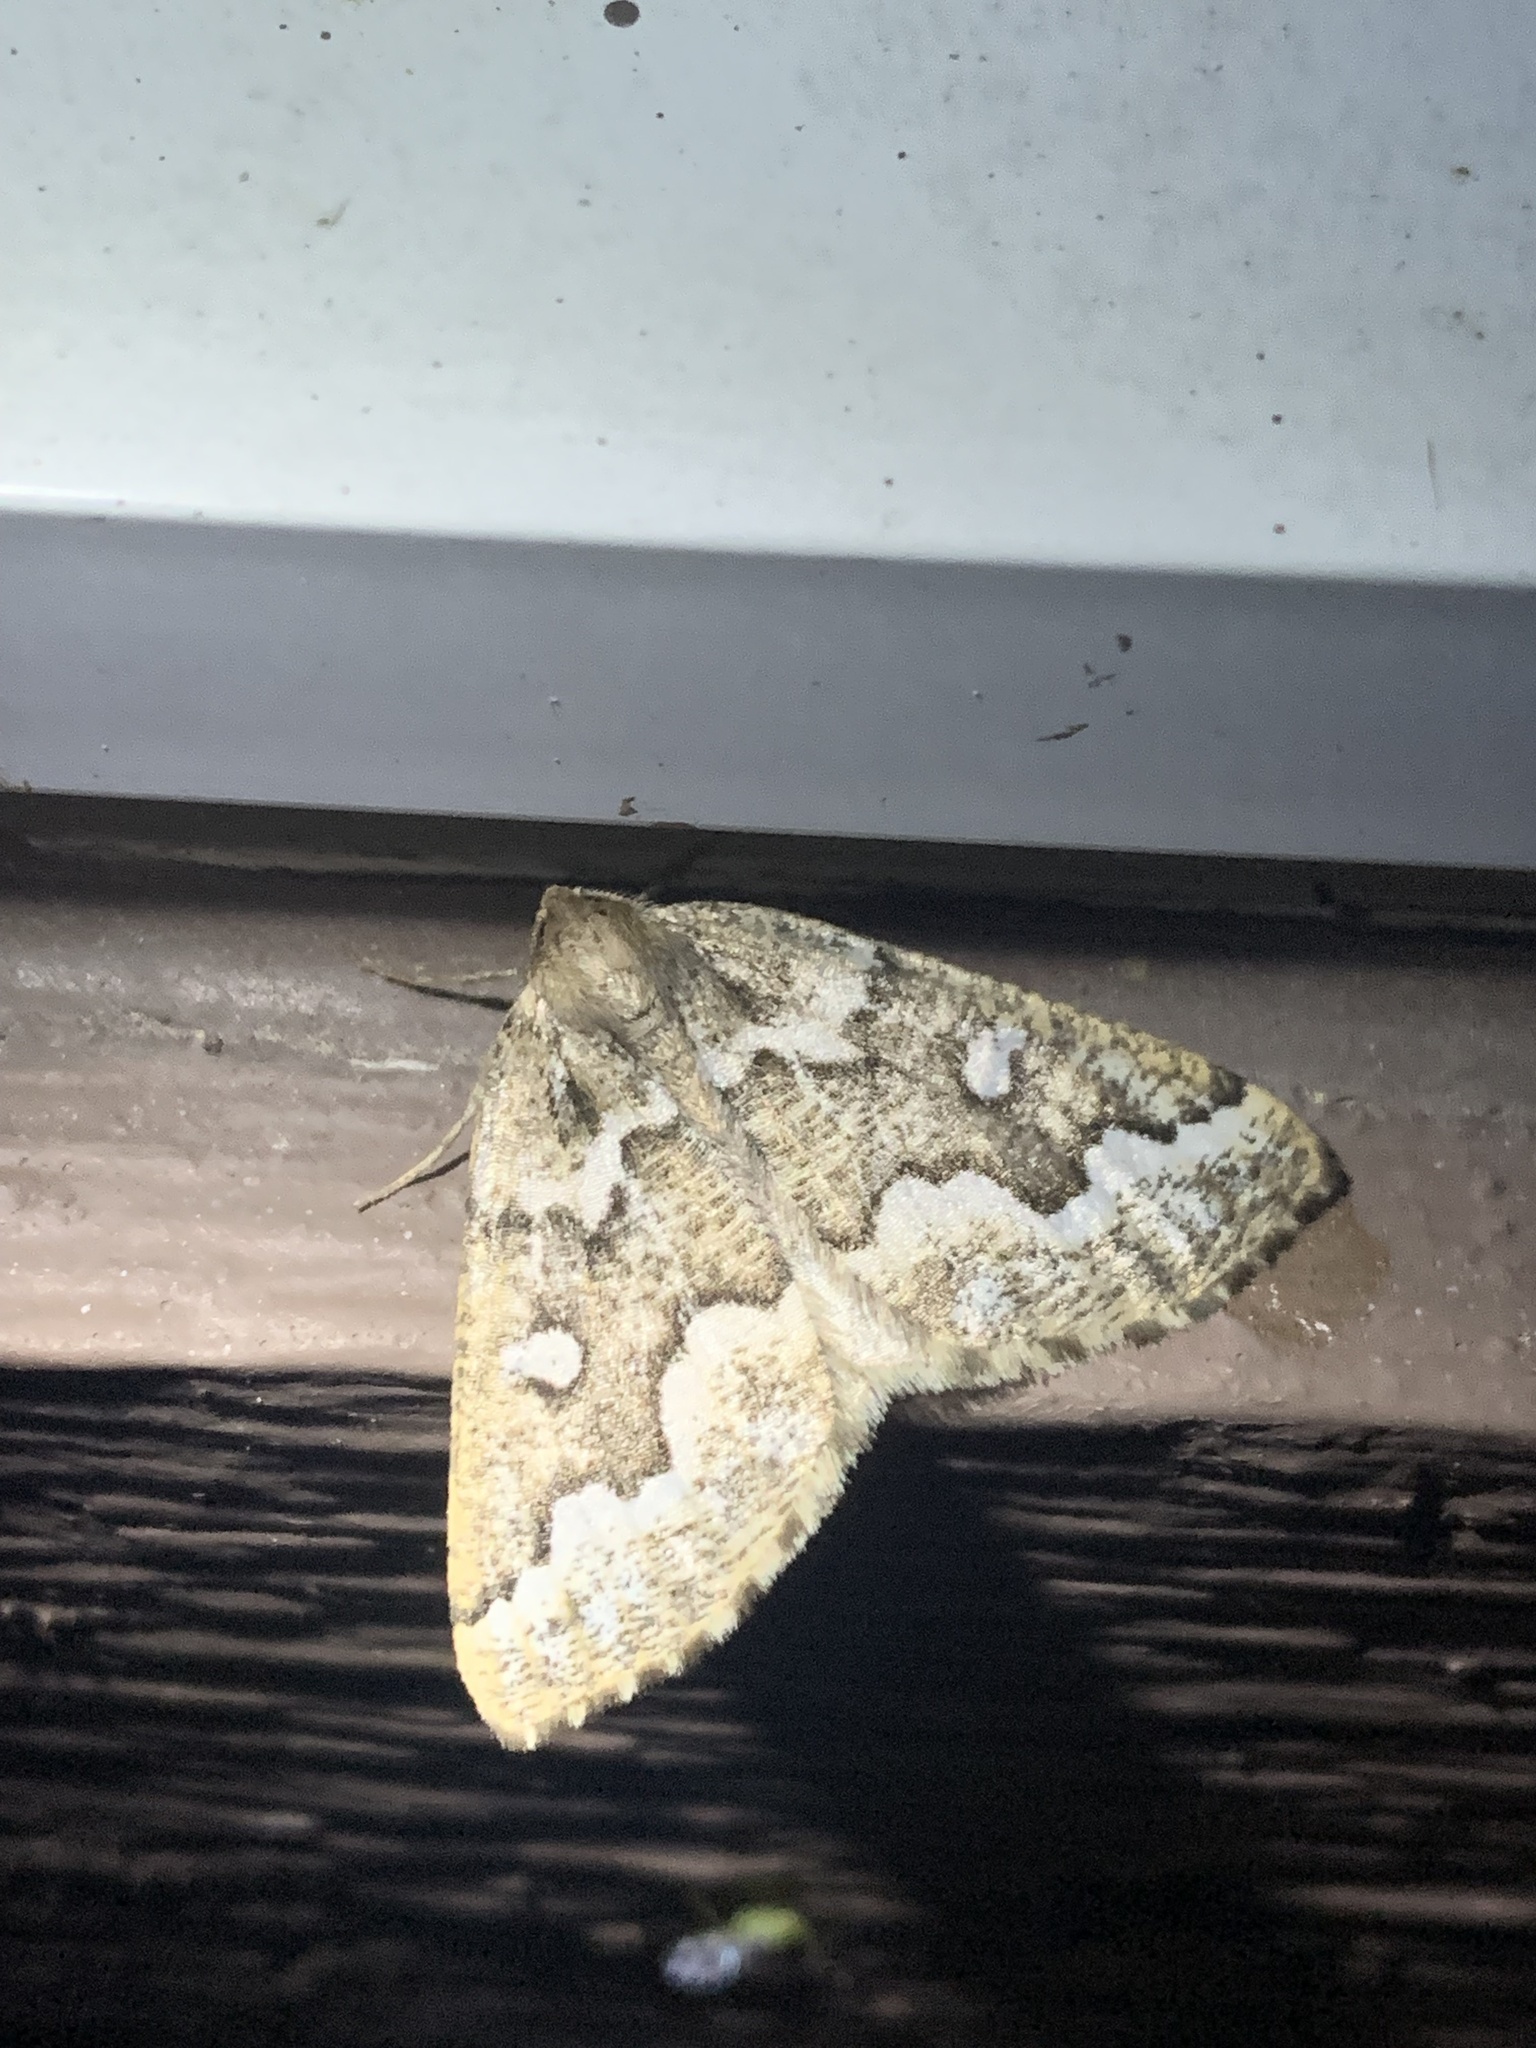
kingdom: Animalia
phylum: Arthropoda
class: Insecta
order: Lepidoptera
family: Geometridae
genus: Caripeta
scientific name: Caripeta divisata
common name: Gray spruce looper
